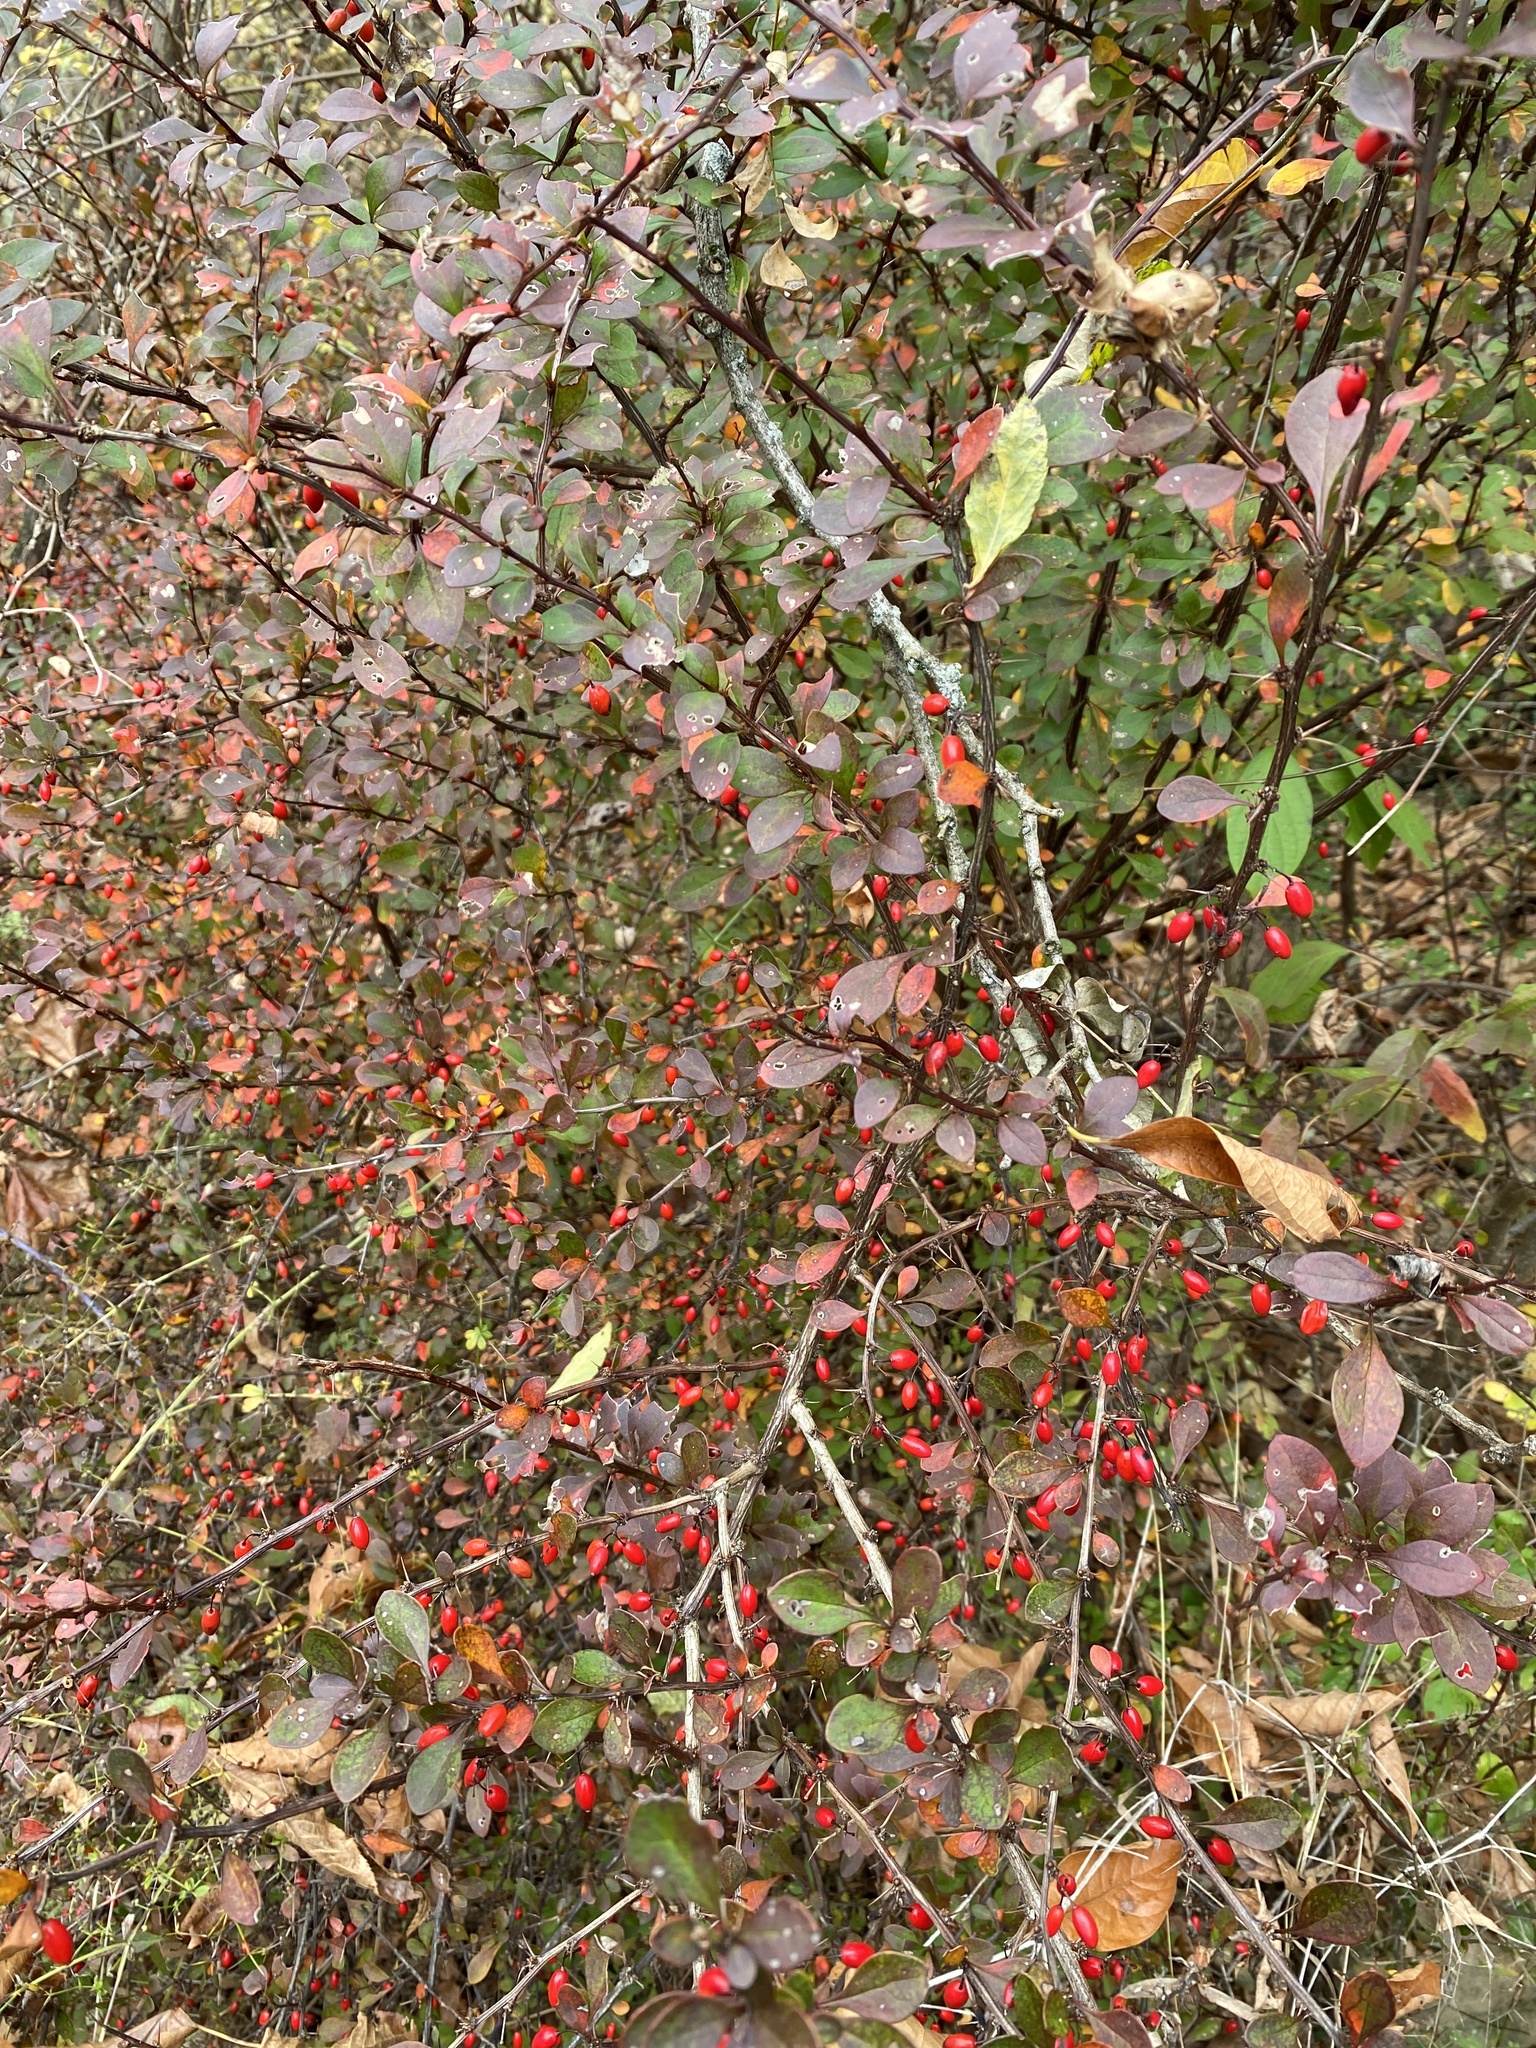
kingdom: Plantae
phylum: Tracheophyta
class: Magnoliopsida
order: Ranunculales
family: Berberidaceae
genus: Berberis
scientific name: Berberis thunbergii
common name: Japanese barberry
